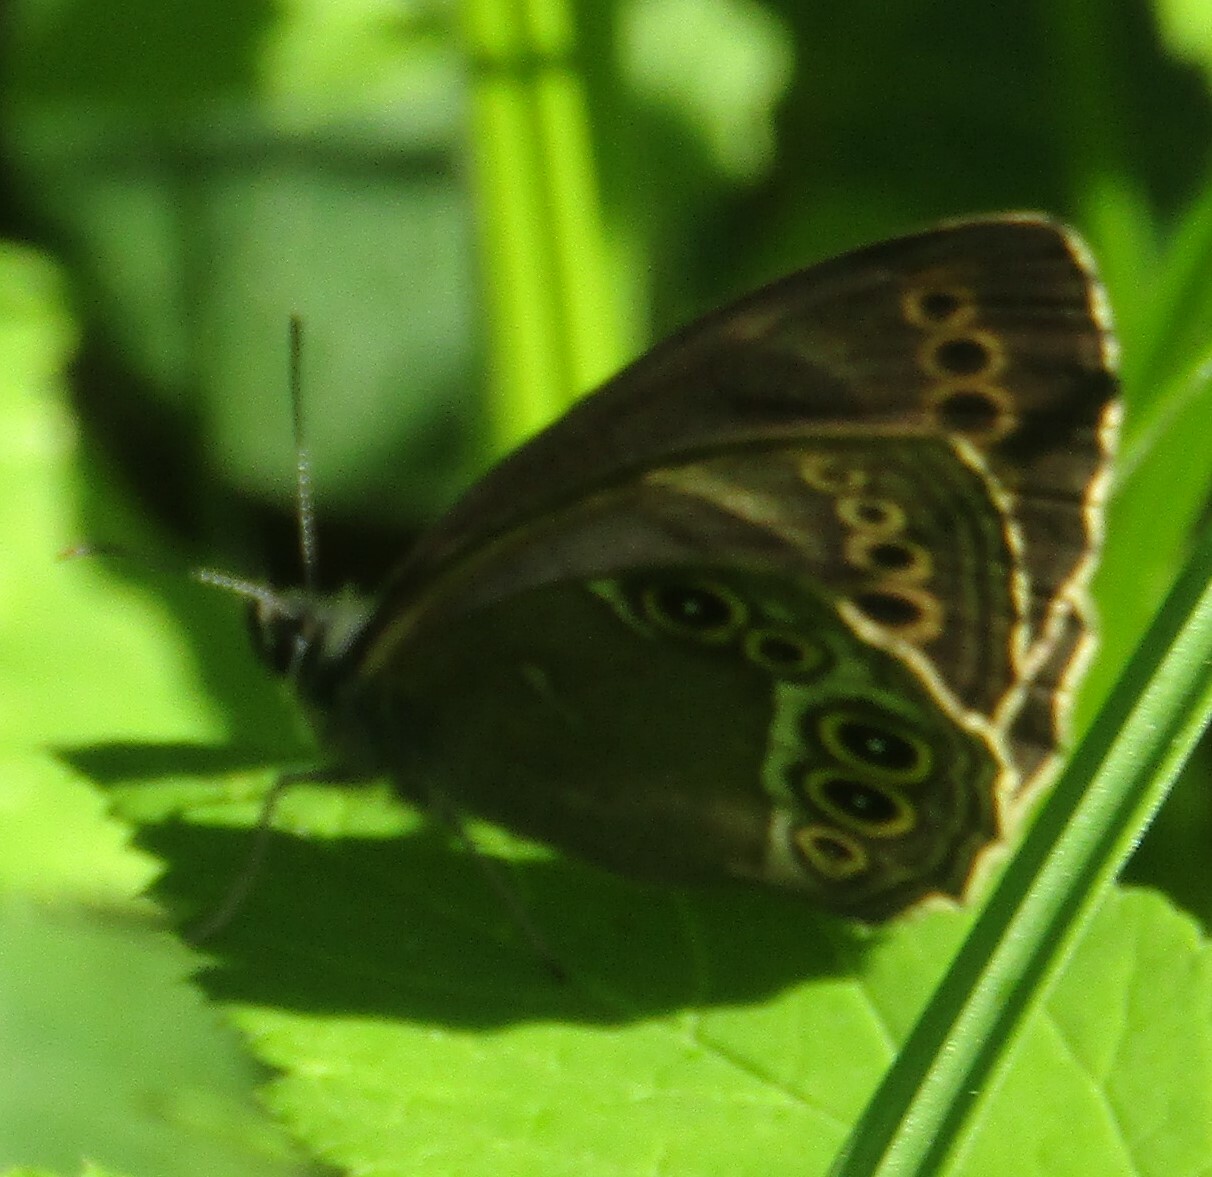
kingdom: Animalia
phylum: Arthropoda
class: Insecta
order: Lepidoptera
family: Nymphalidae
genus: Pararge
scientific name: Pararge Lopinga achine
